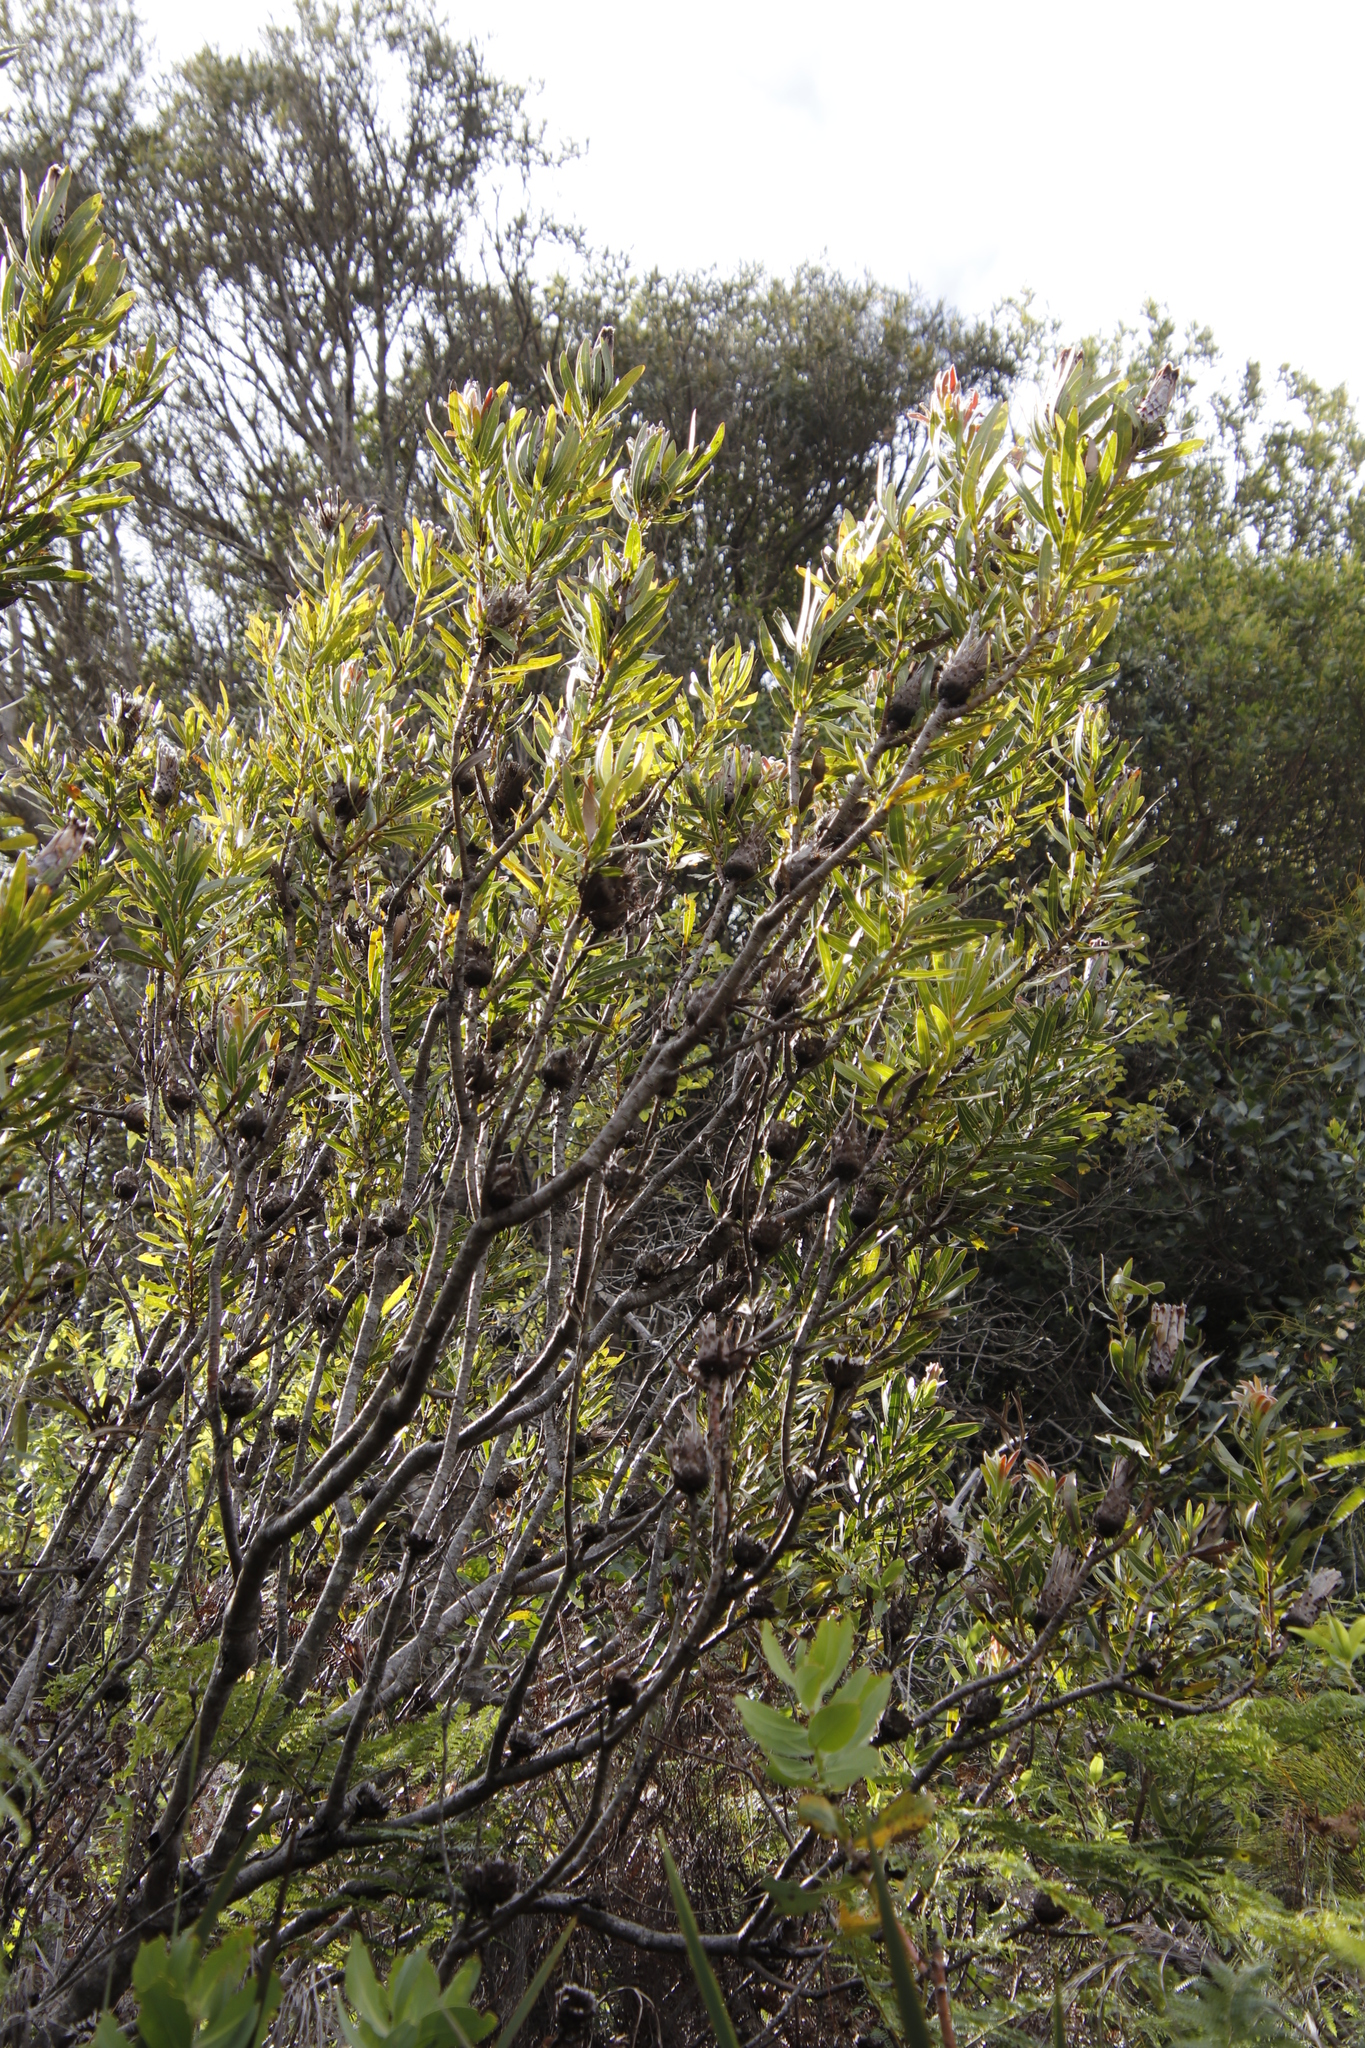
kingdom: Plantae
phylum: Tracheophyta
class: Magnoliopsida
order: Proteales
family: Proteaceae
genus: Protea
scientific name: Protea lepidocarpodendron
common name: Black-bearded protea
